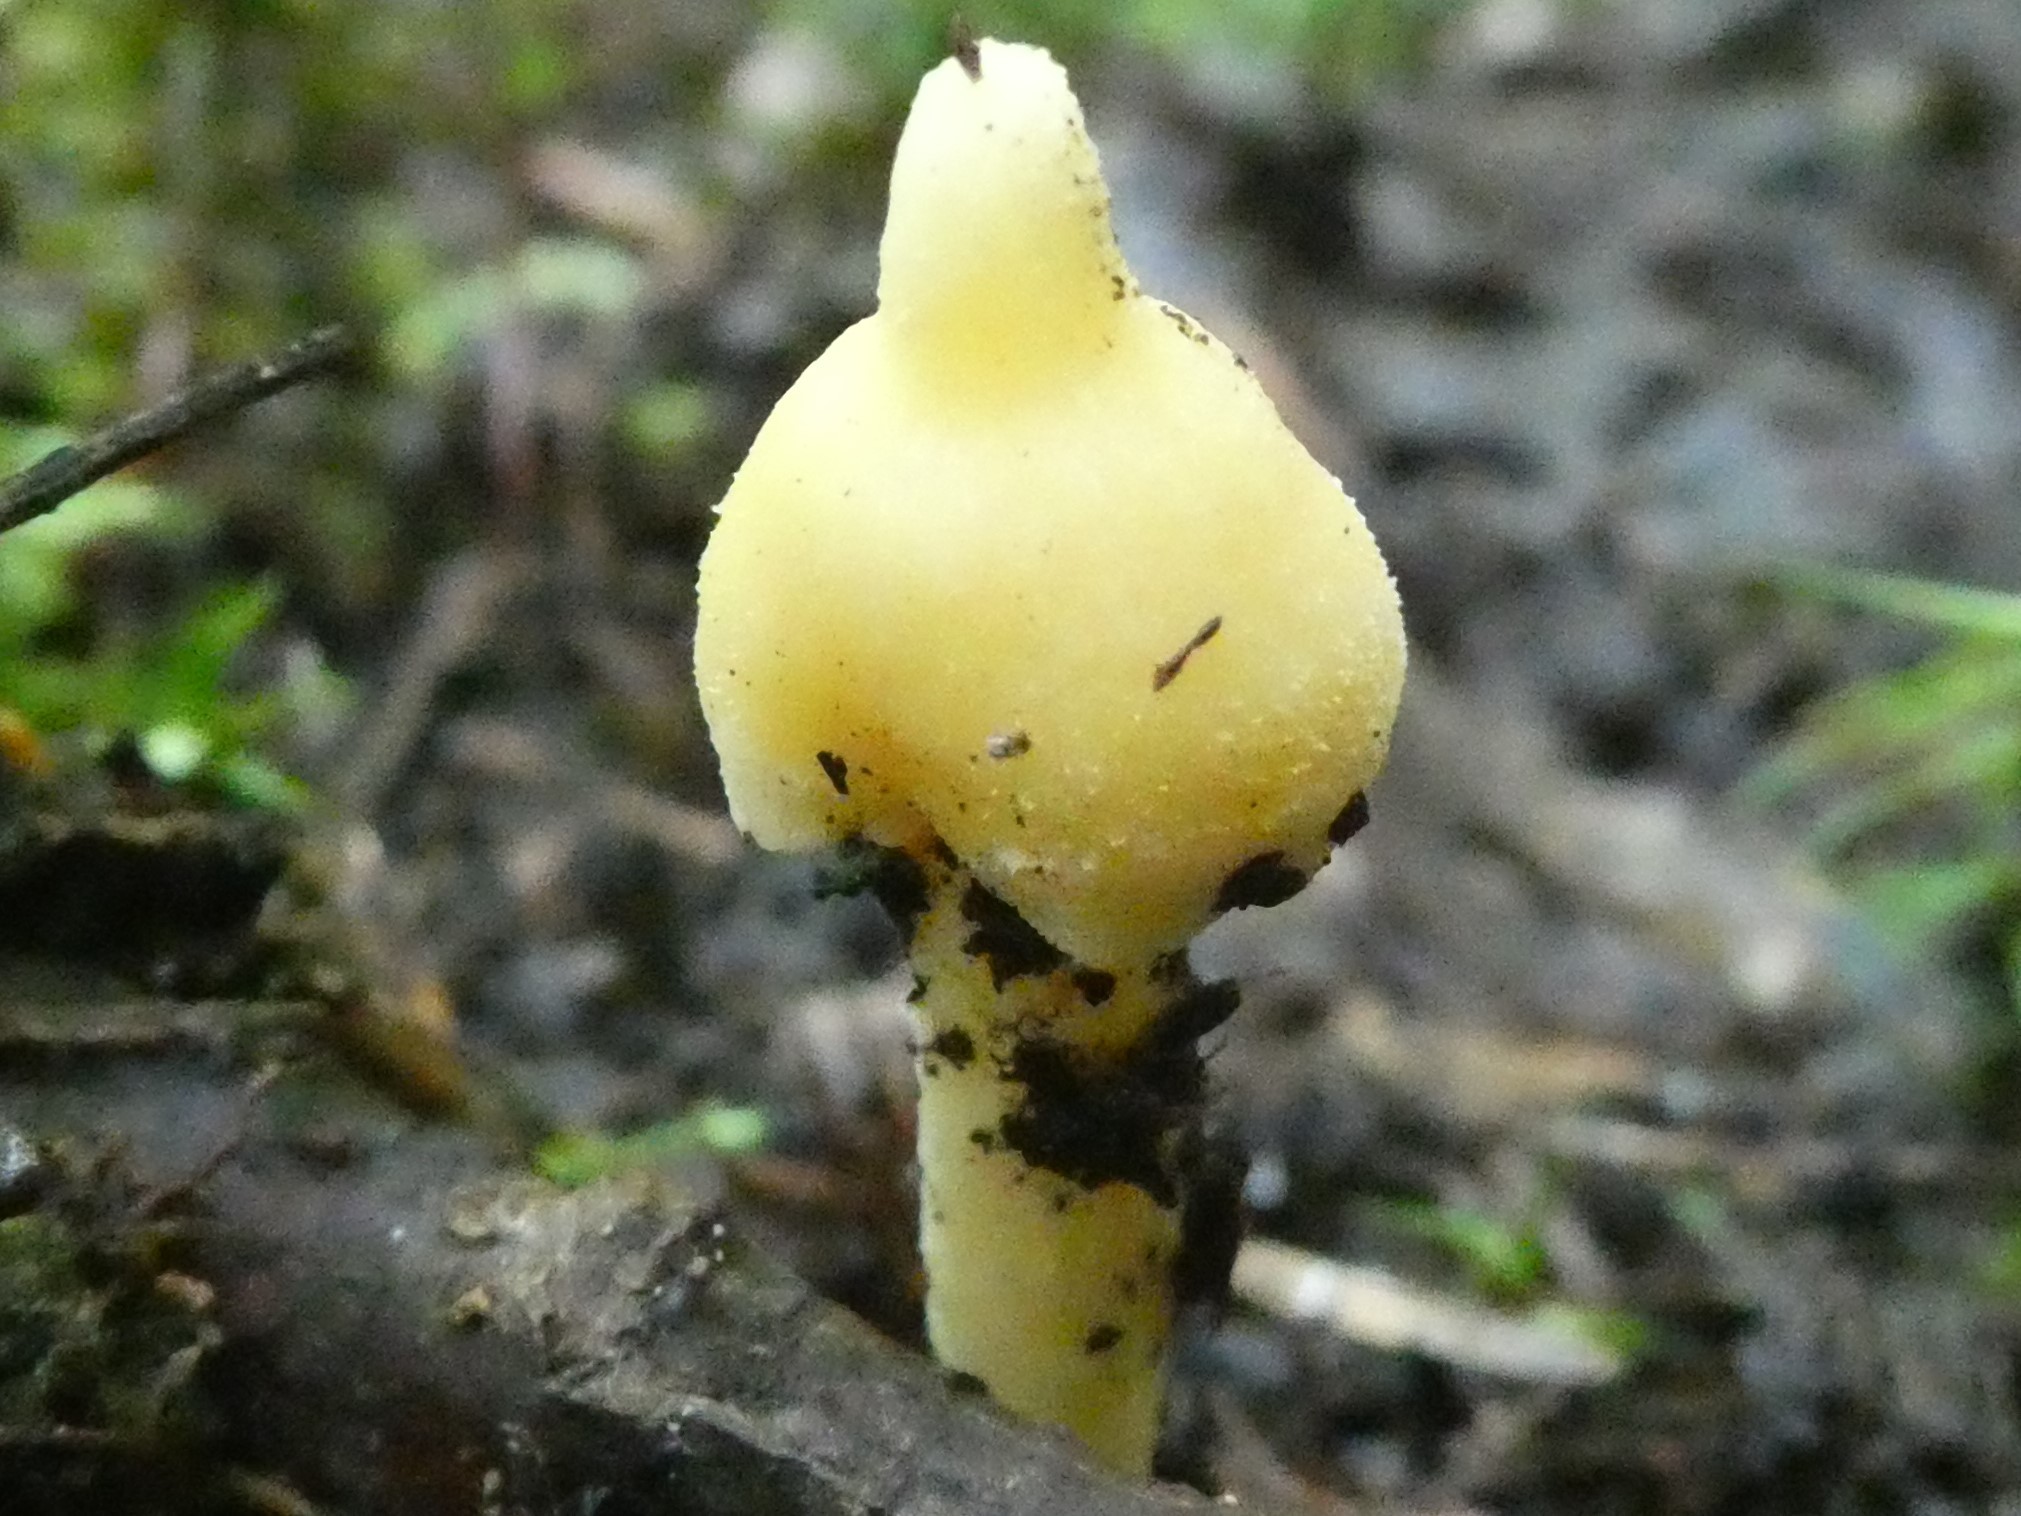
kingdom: Fungi
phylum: Basidiomycota
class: Agaricomycetes
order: Agaricales
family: Entolomataceae
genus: Entoloma
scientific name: Entoloma murrayi
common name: Yellow unicorn entoloma
